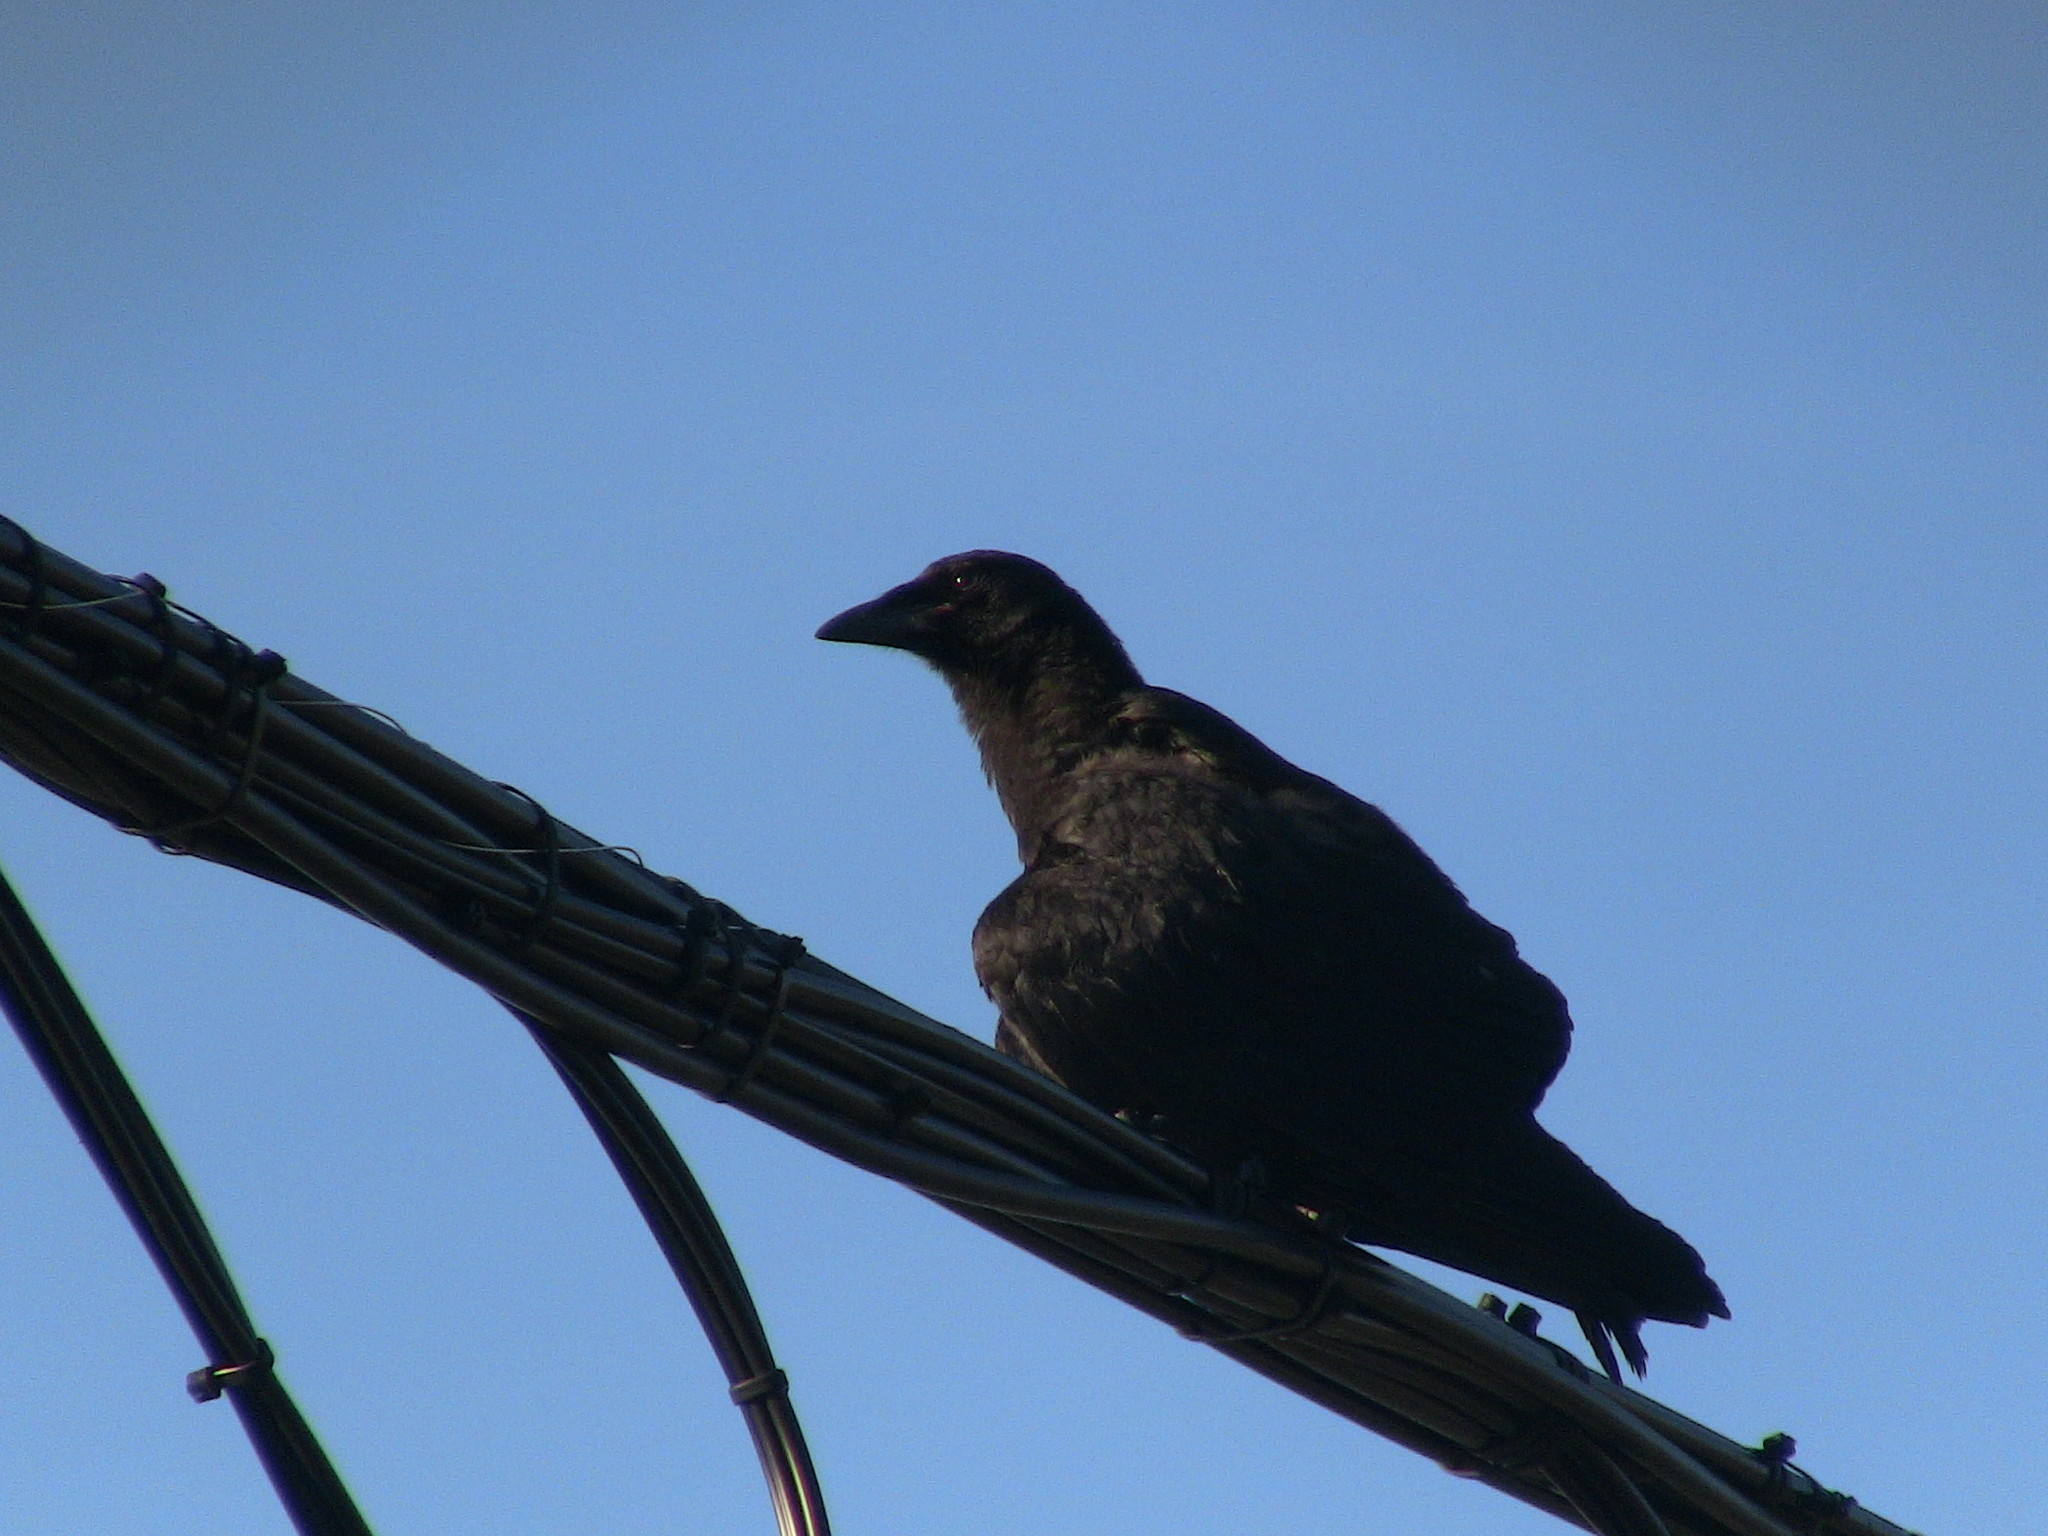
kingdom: Animalia
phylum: Chordata
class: Aves
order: Passeriformes
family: Corvidae
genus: Corvus
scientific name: Corvus brachyrhynchos
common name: American crow
